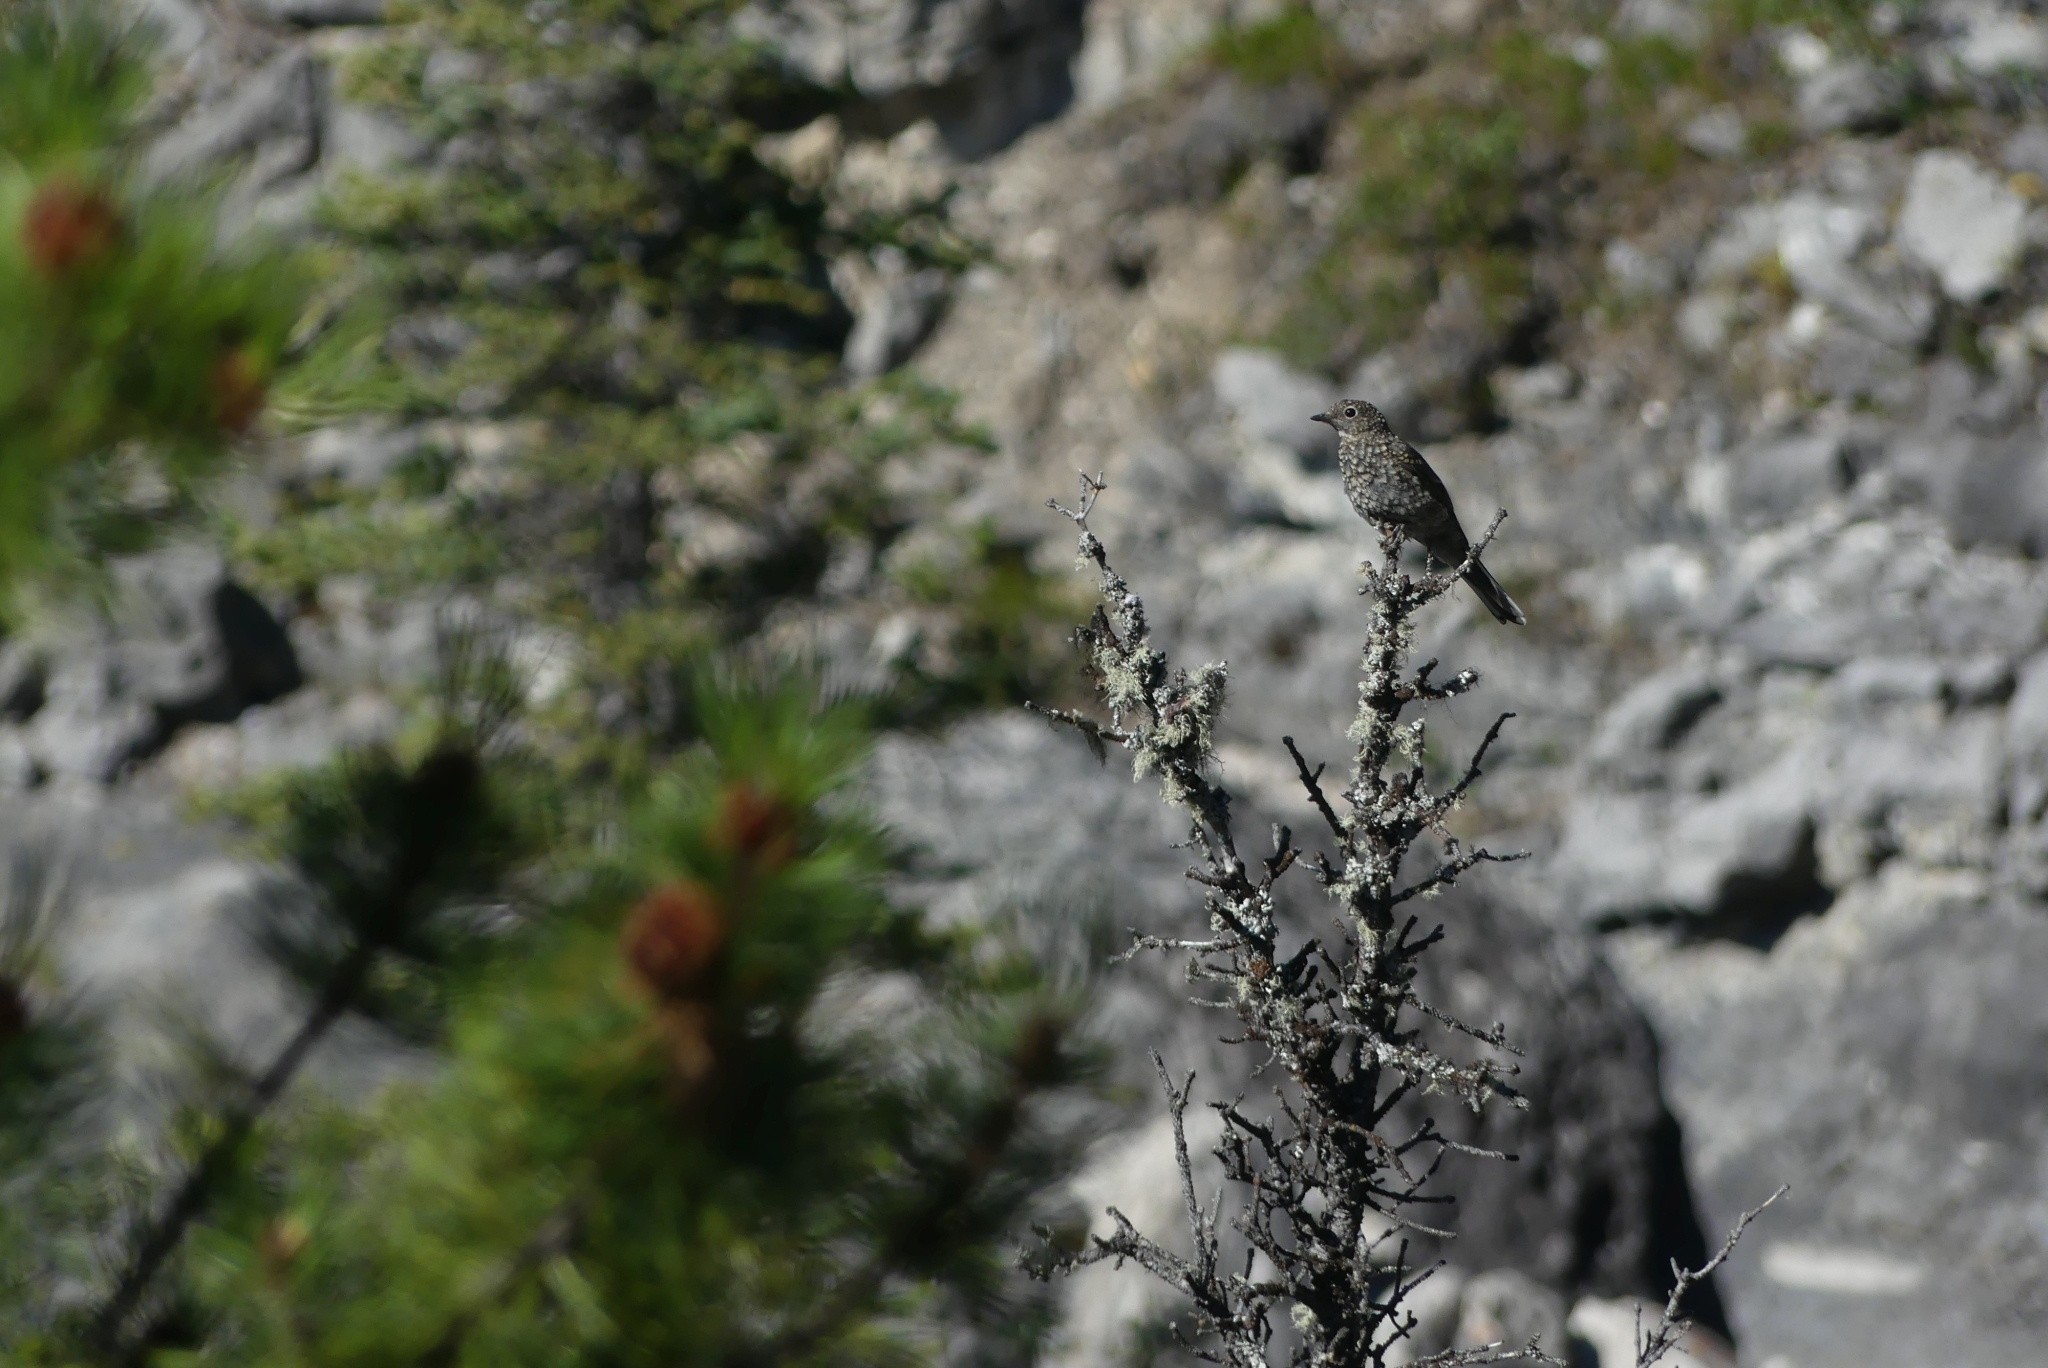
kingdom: Animalia
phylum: Chordata
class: Aves
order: Passeriformes
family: Turdidae
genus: Myadestes
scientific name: Myadestes townsendi
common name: Townsend's solitaire
